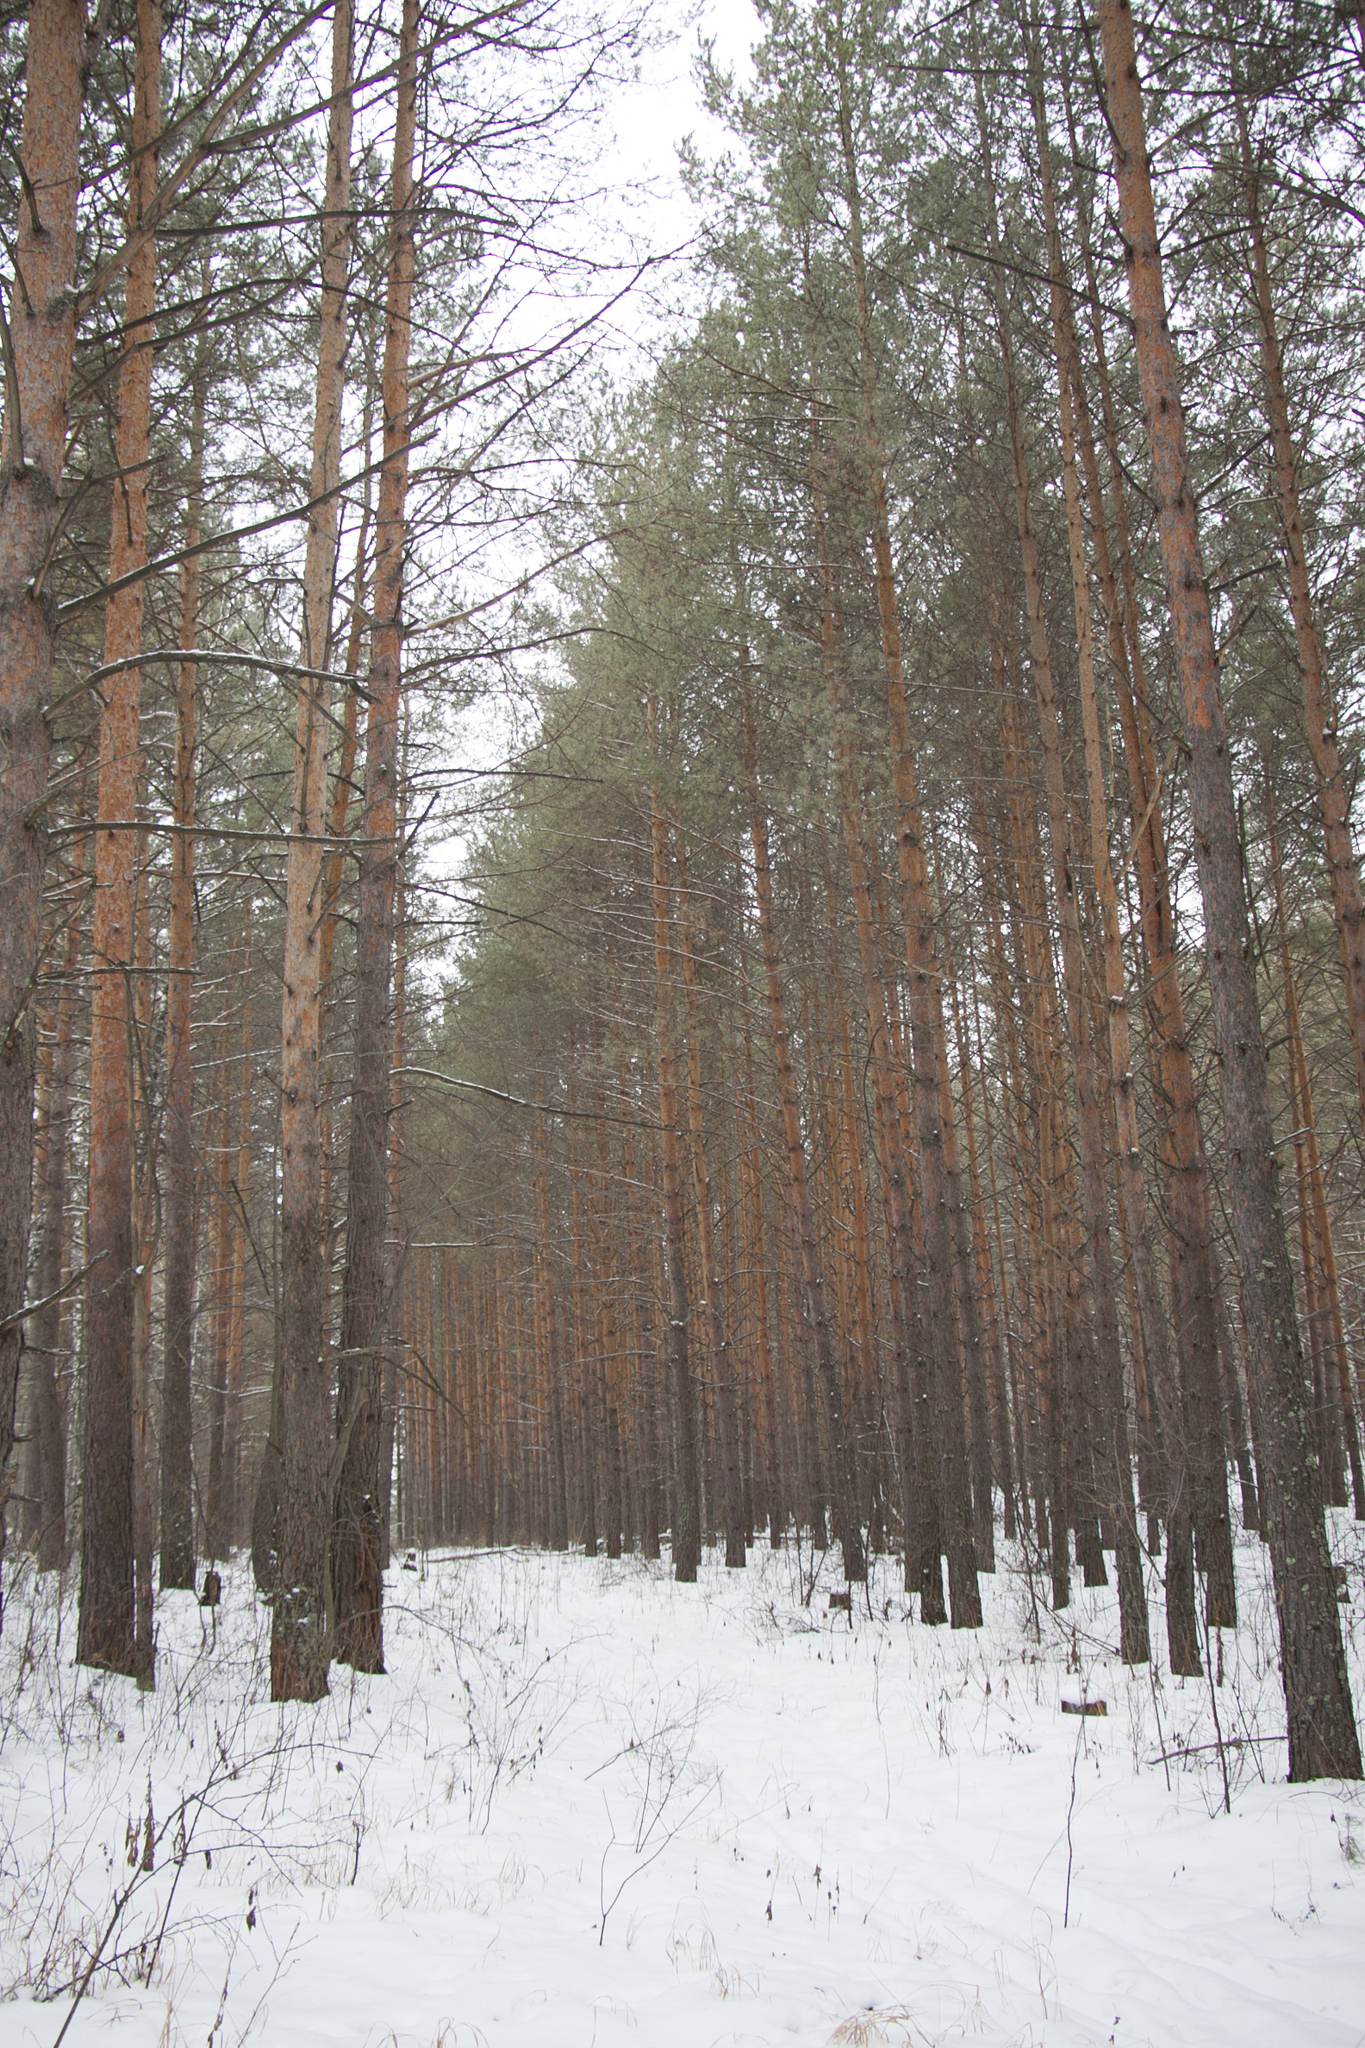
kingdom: Plantae
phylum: Tracheophyta
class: Pinopsida
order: Pinales
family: Pinaceae
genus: Pinus
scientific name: Pinus sylvestris
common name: Scots pine
